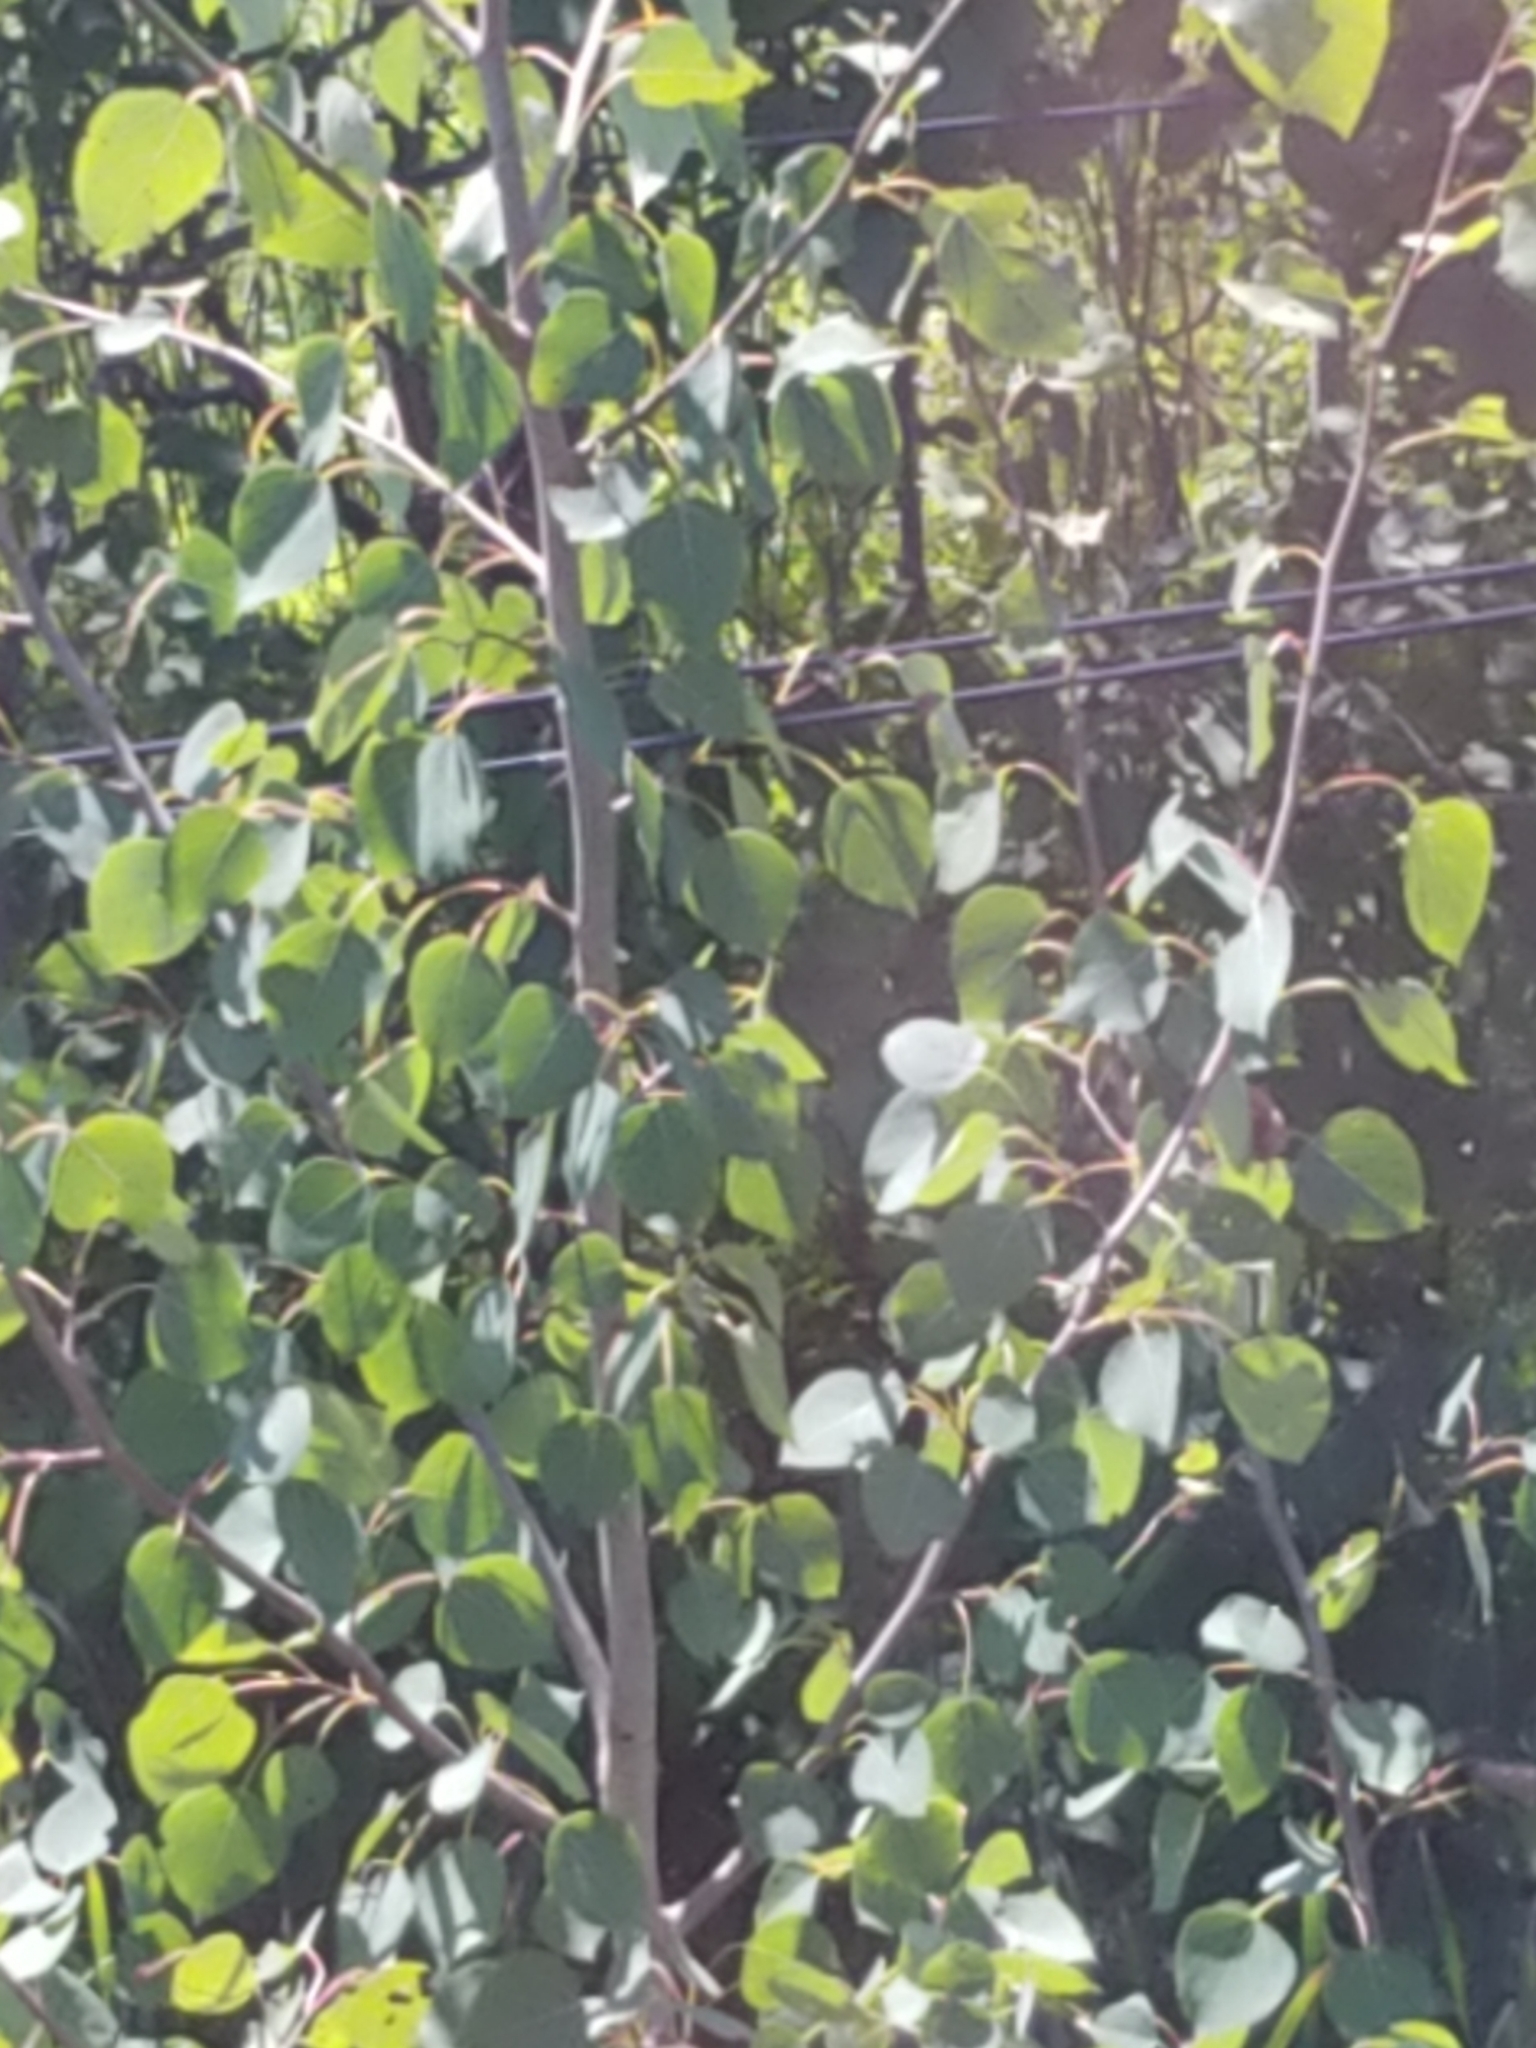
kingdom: Plantae
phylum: Tracheophyta
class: Magnoliopsida
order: Malpighiales
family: Salicaceae
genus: Populus
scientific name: Populus tremuloides
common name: Quaking aspen
